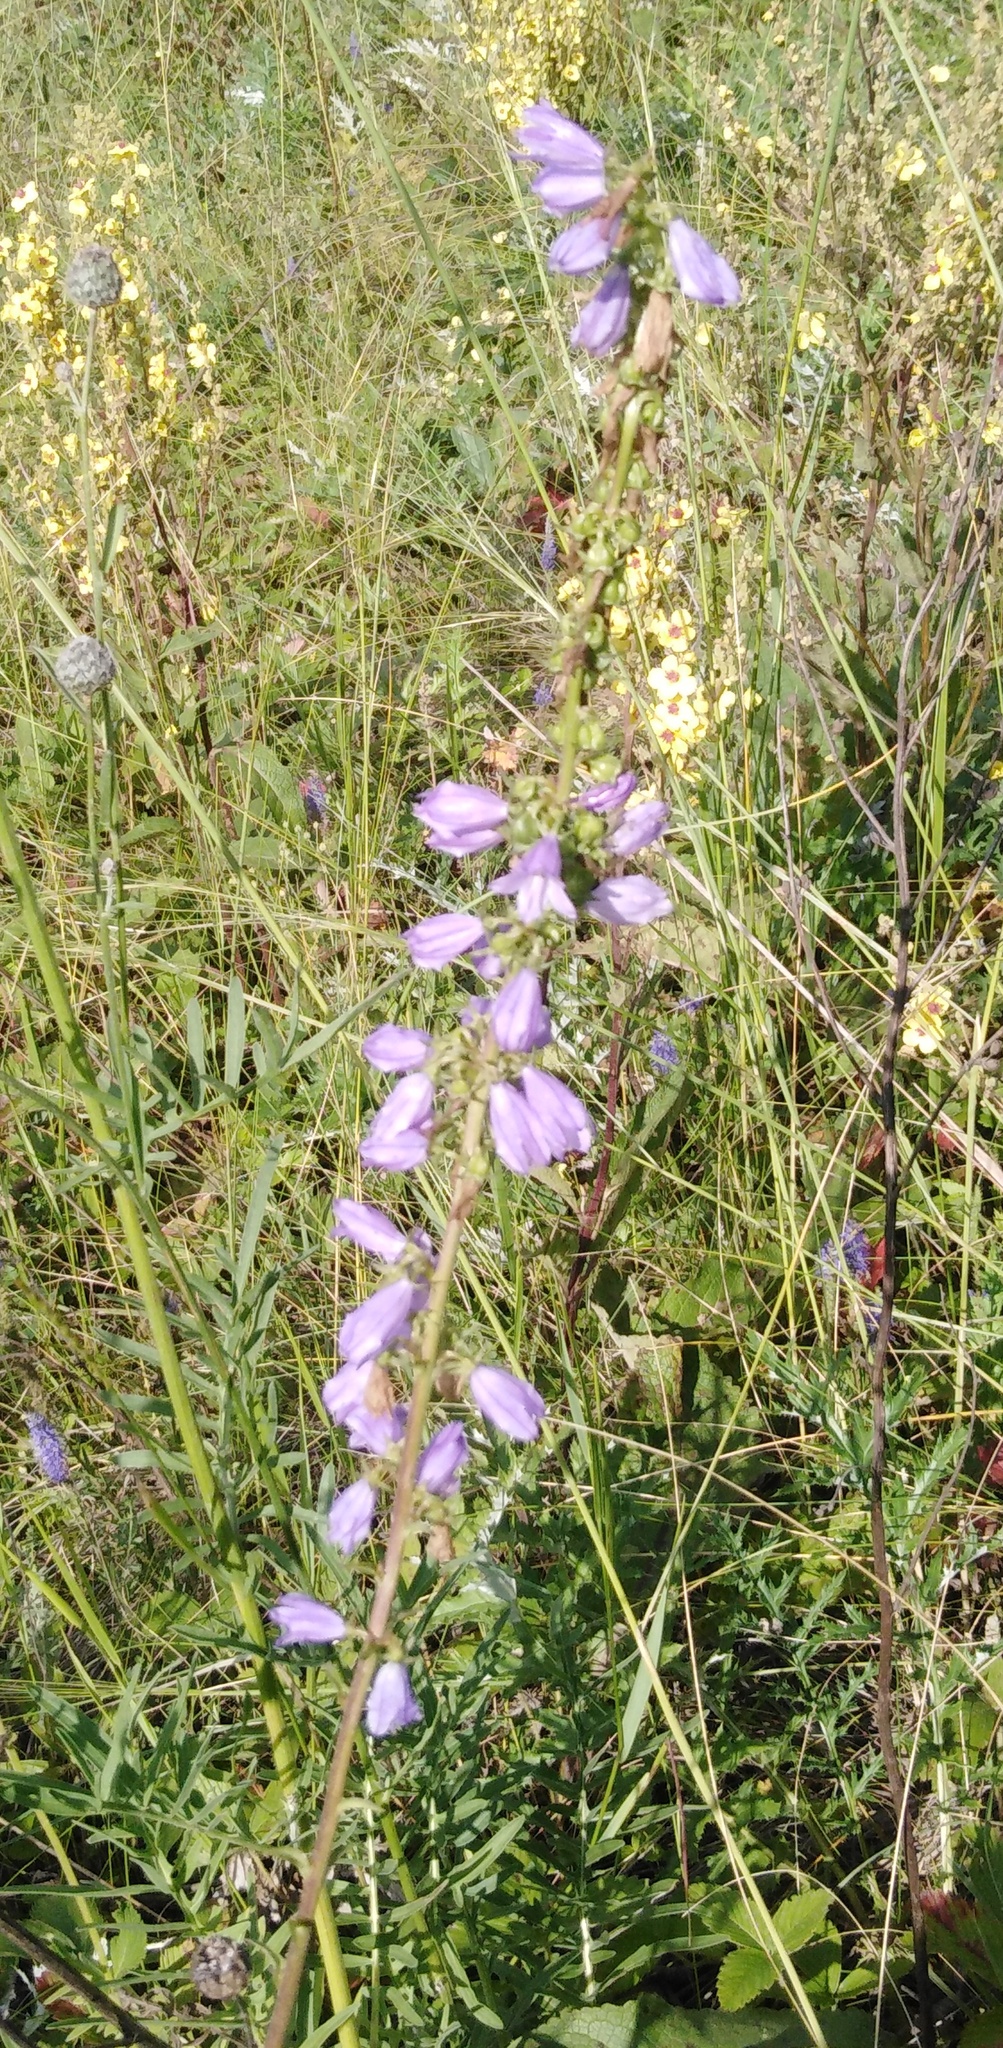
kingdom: Plantae
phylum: Tracheophyta
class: Magnoliopsida
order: Asterales
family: Campanulaceae
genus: Campanula
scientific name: Campanula bononiensis
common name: Pale bellflower
